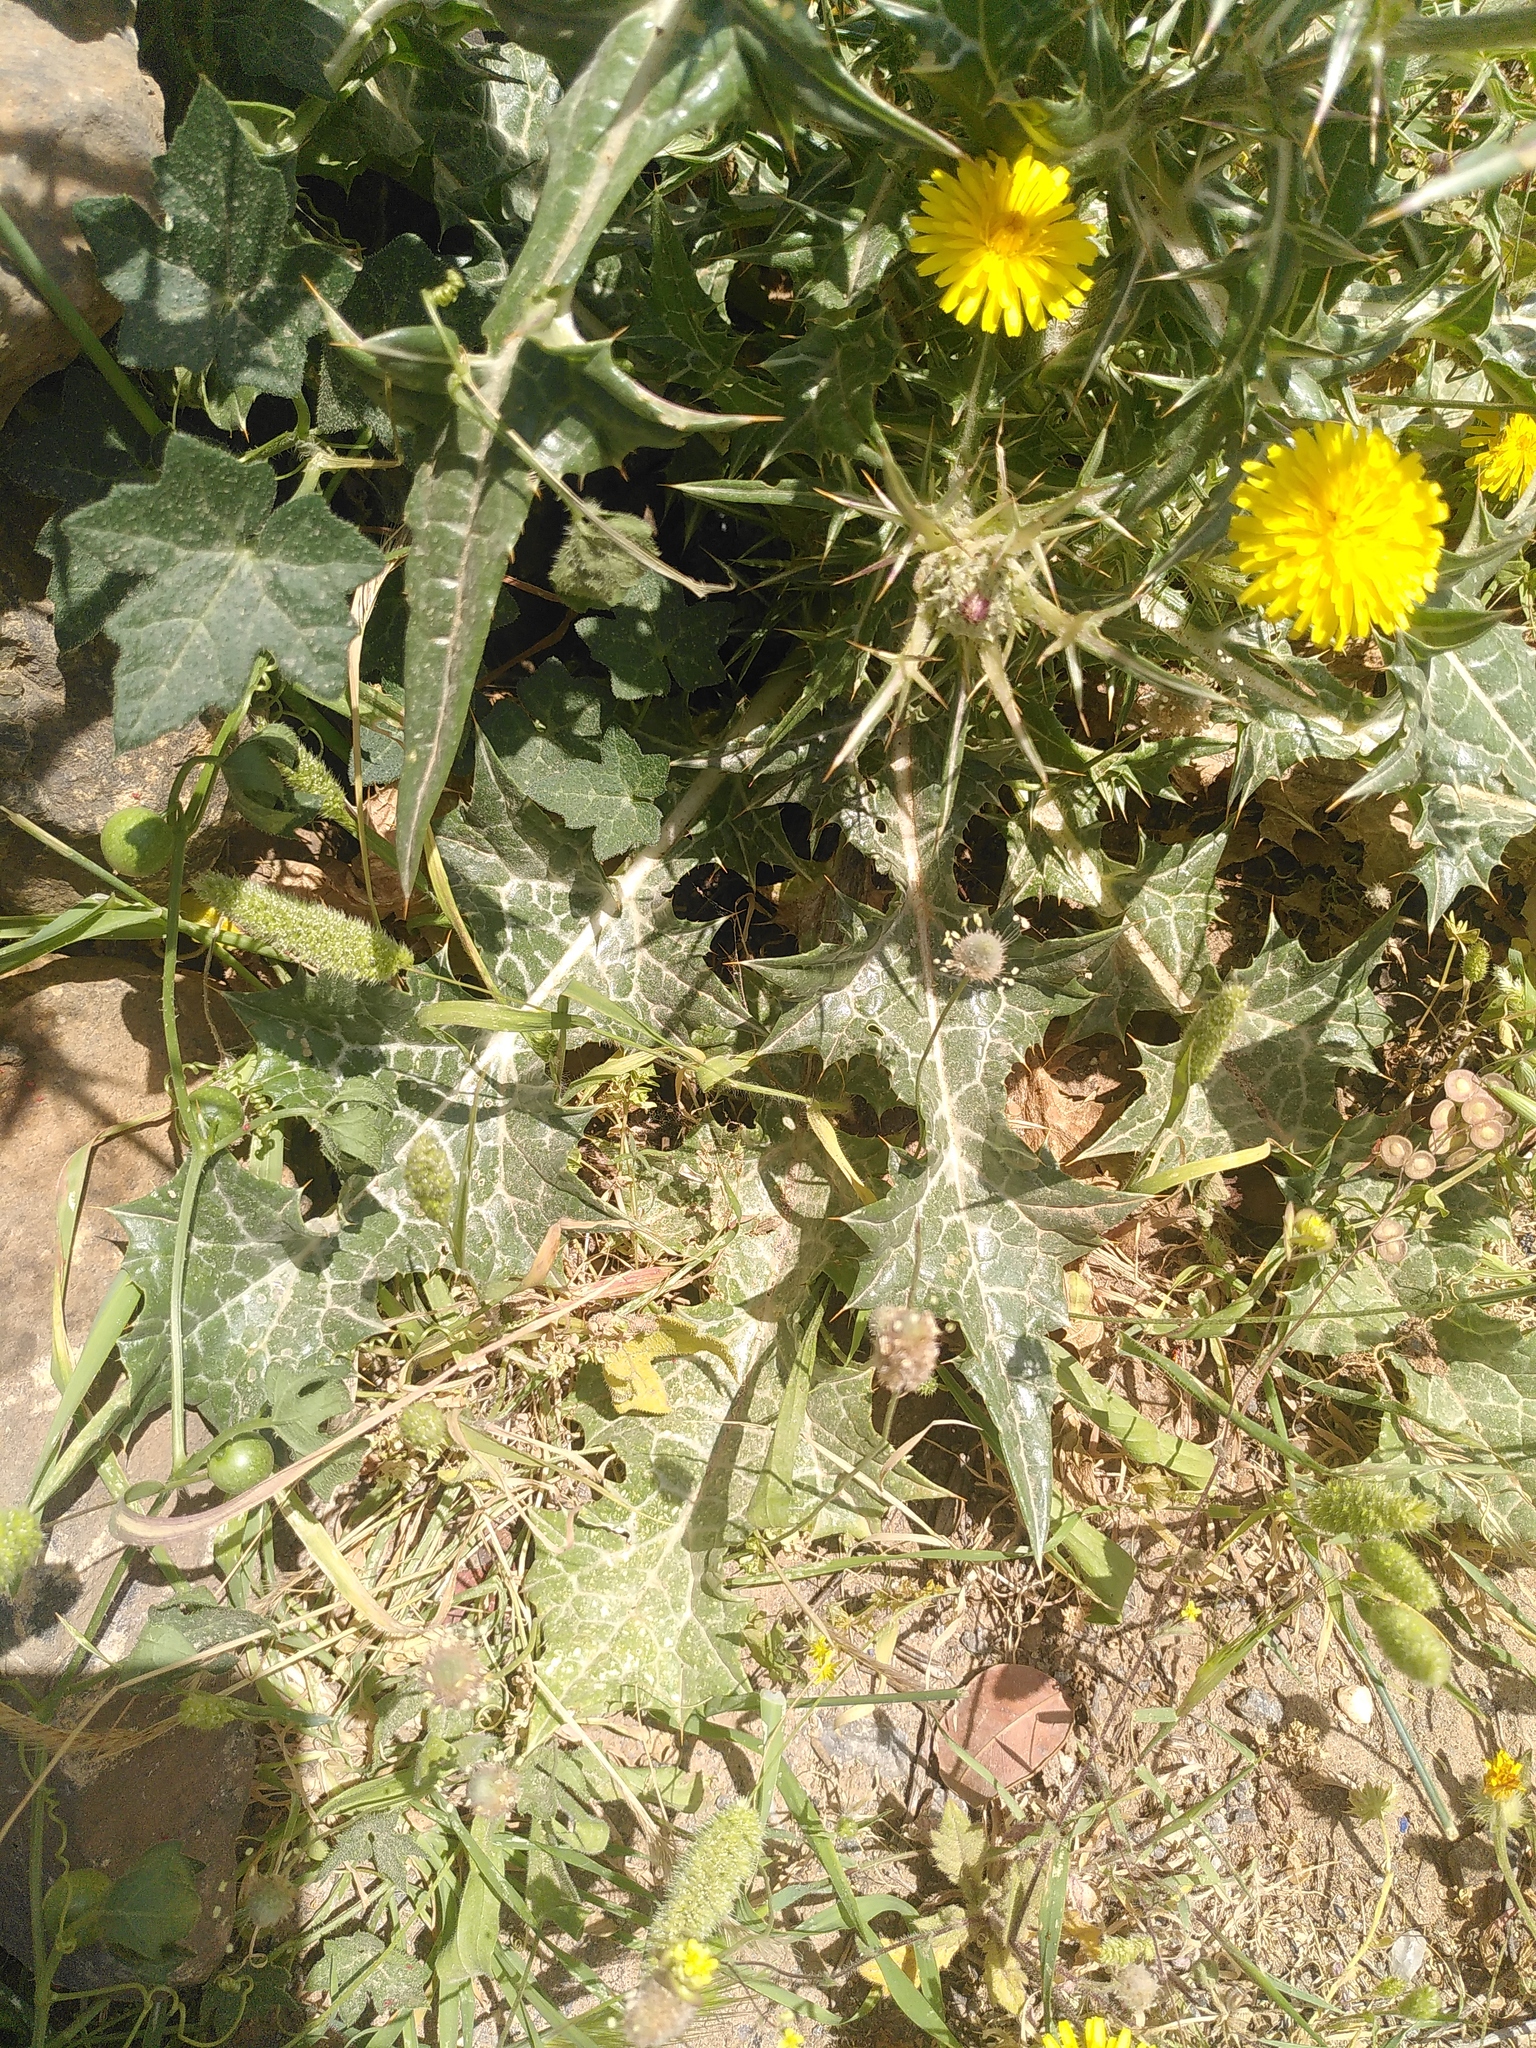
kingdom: Plantae
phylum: Tracheophyta
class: Magnoliopsida
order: Asterales
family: Asteraceae
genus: Notobasis
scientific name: Notobasis syriaca
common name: Syrian thistle
